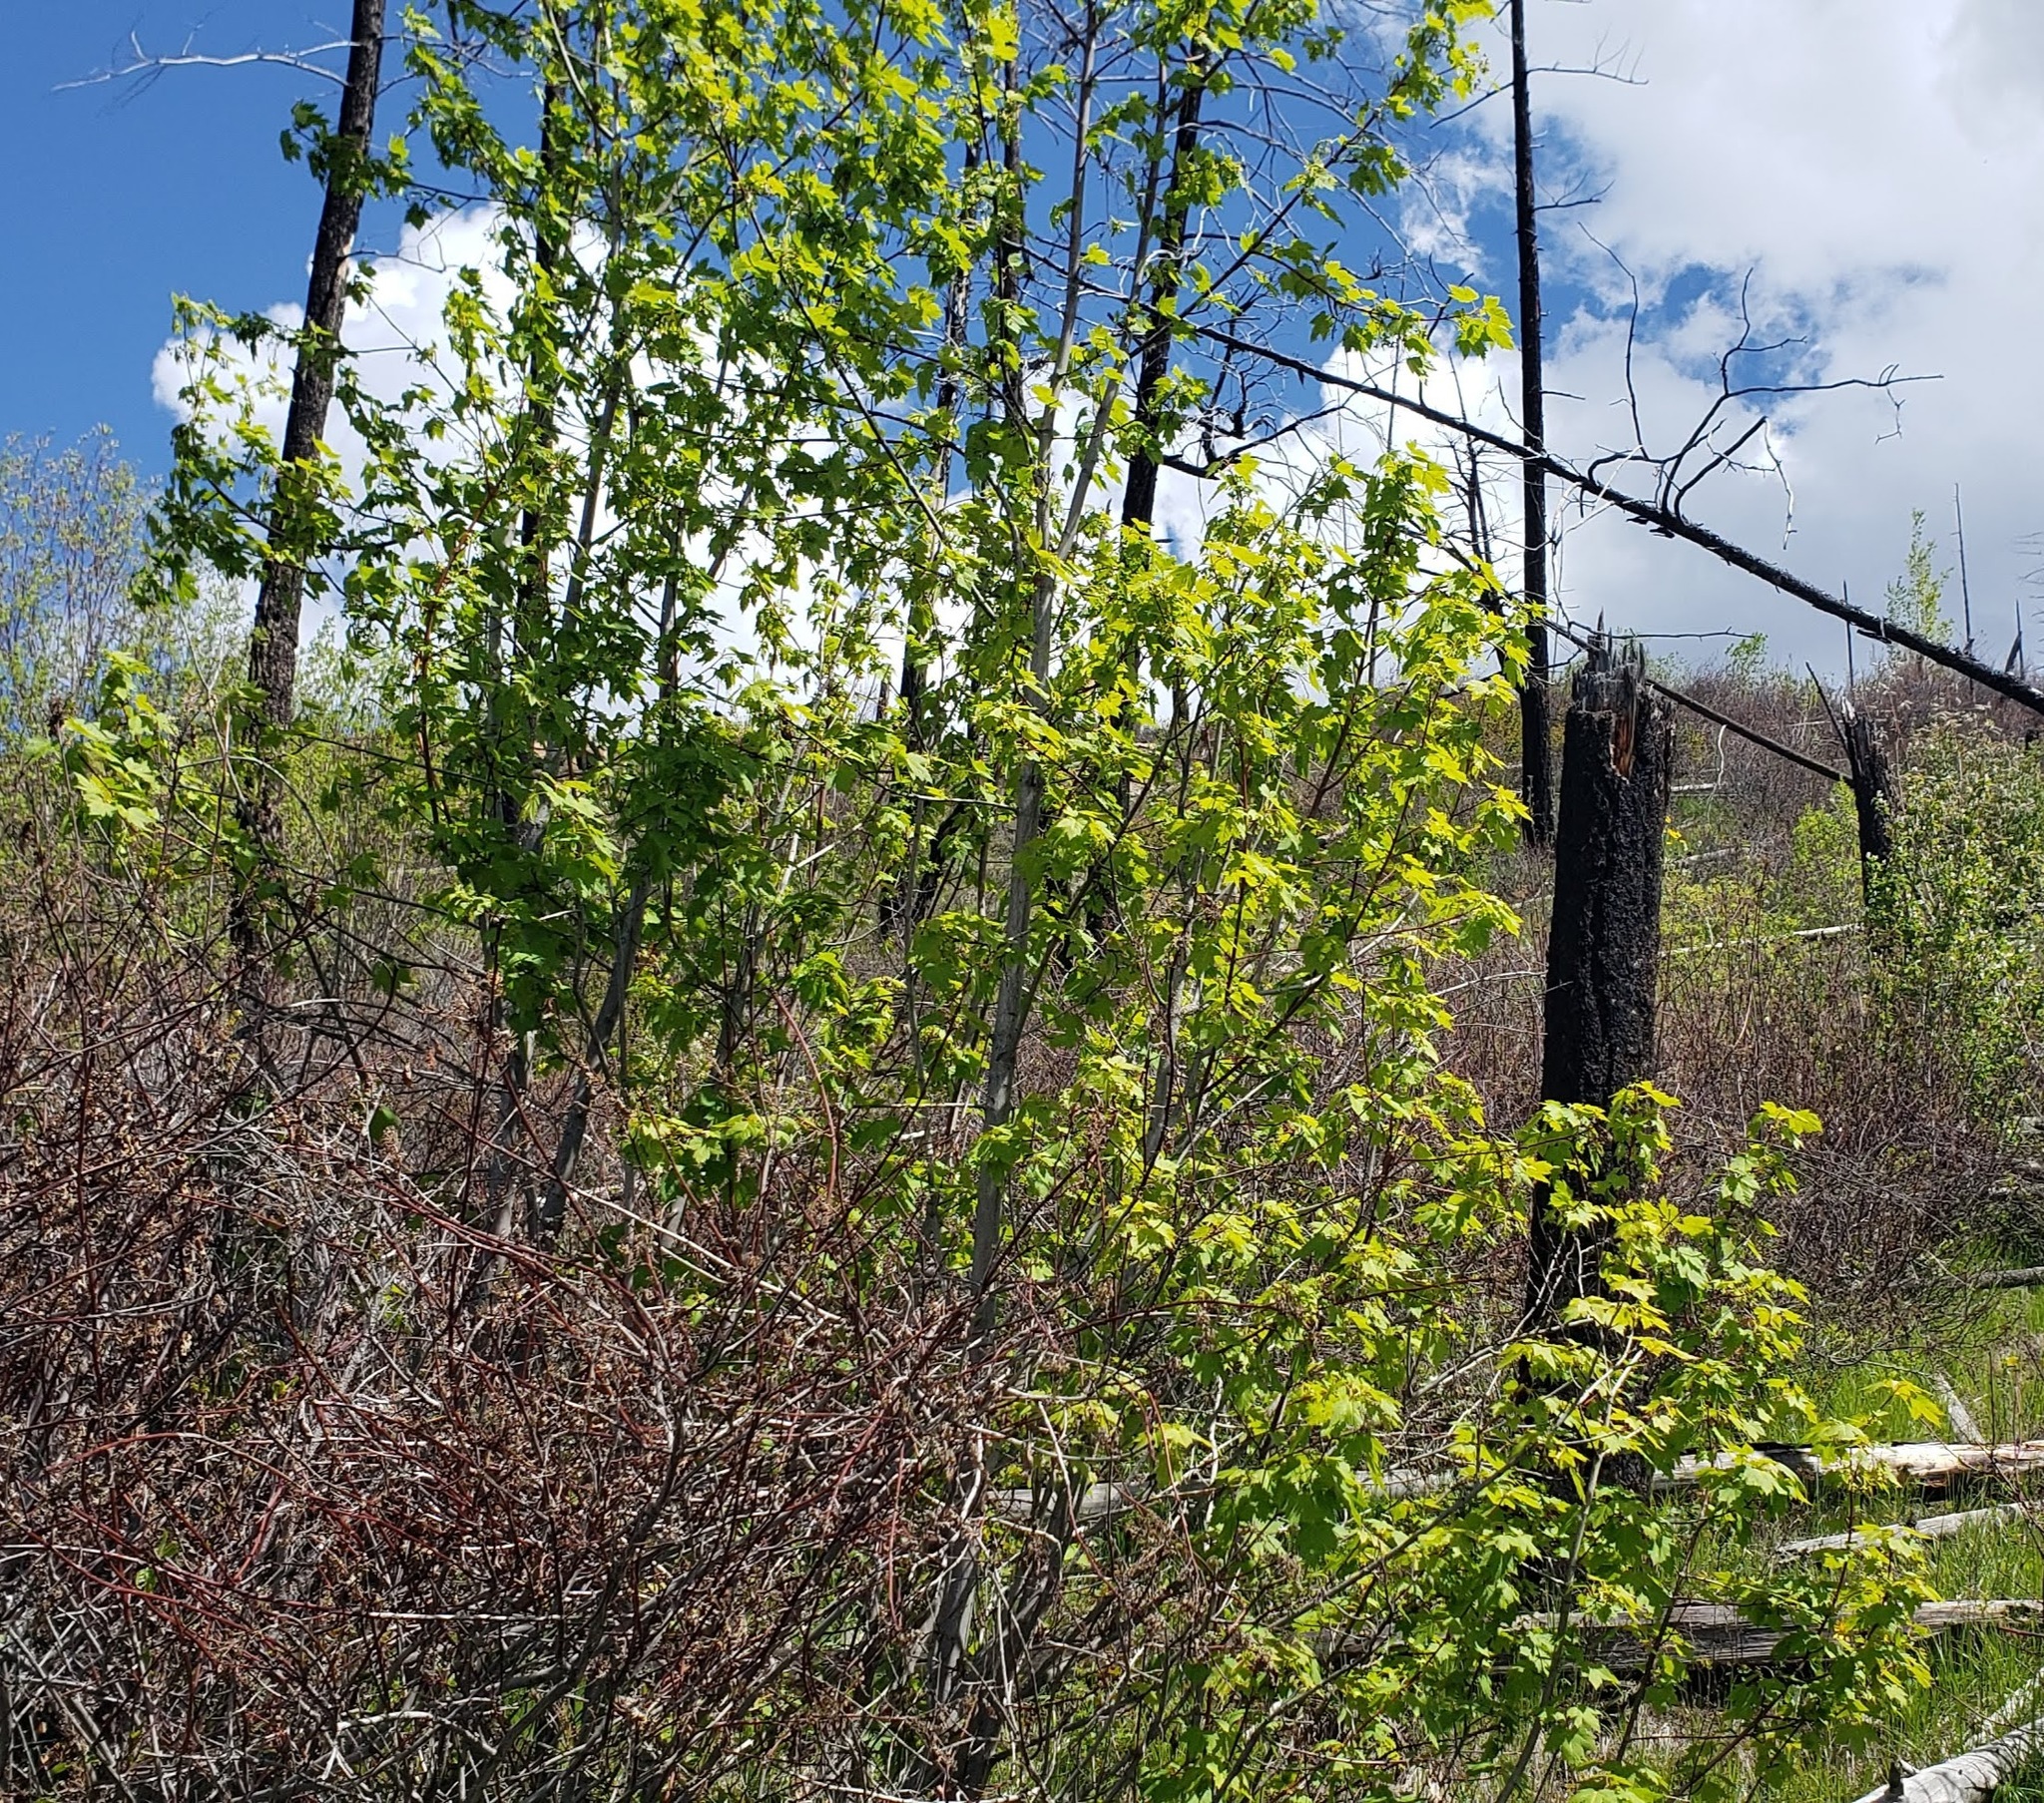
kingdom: Plantae
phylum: Tracheophyta
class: Magnoliopsida
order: Sapindales
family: Sapindaceae
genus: Acer
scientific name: Acer glabrum
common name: Rocky mountain maple
